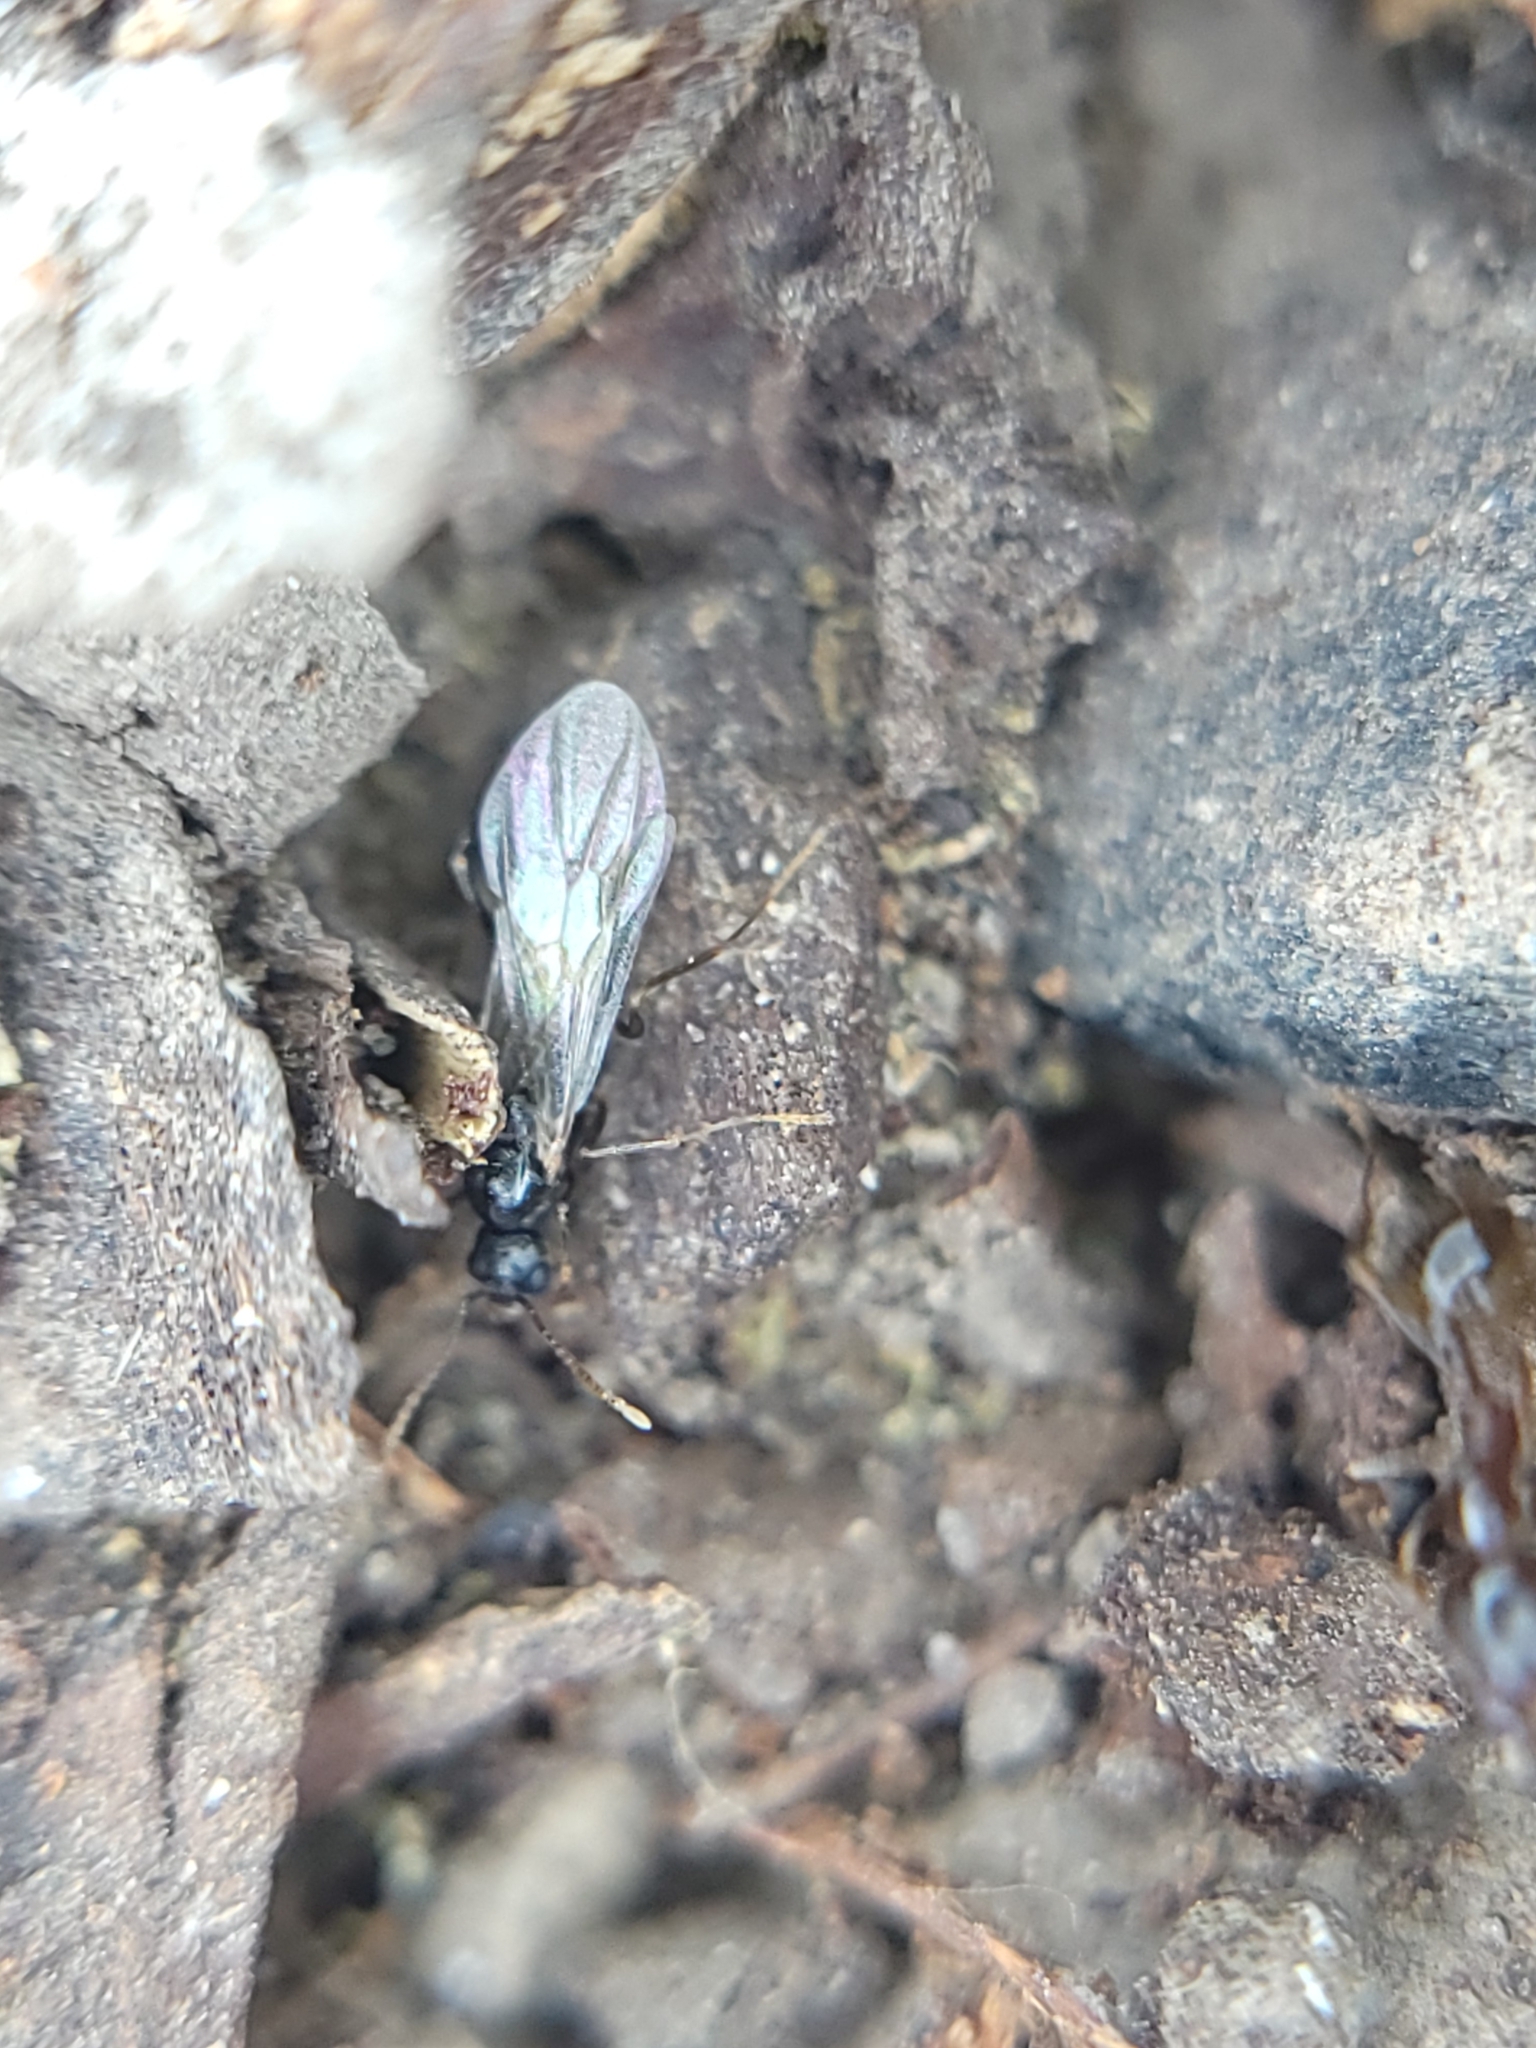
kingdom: Animalia
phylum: Arthropoda
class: Insecta
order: Hymenoptera
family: Formicidae
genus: Aphaenogaster
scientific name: Aphaenogaster occidentalis
